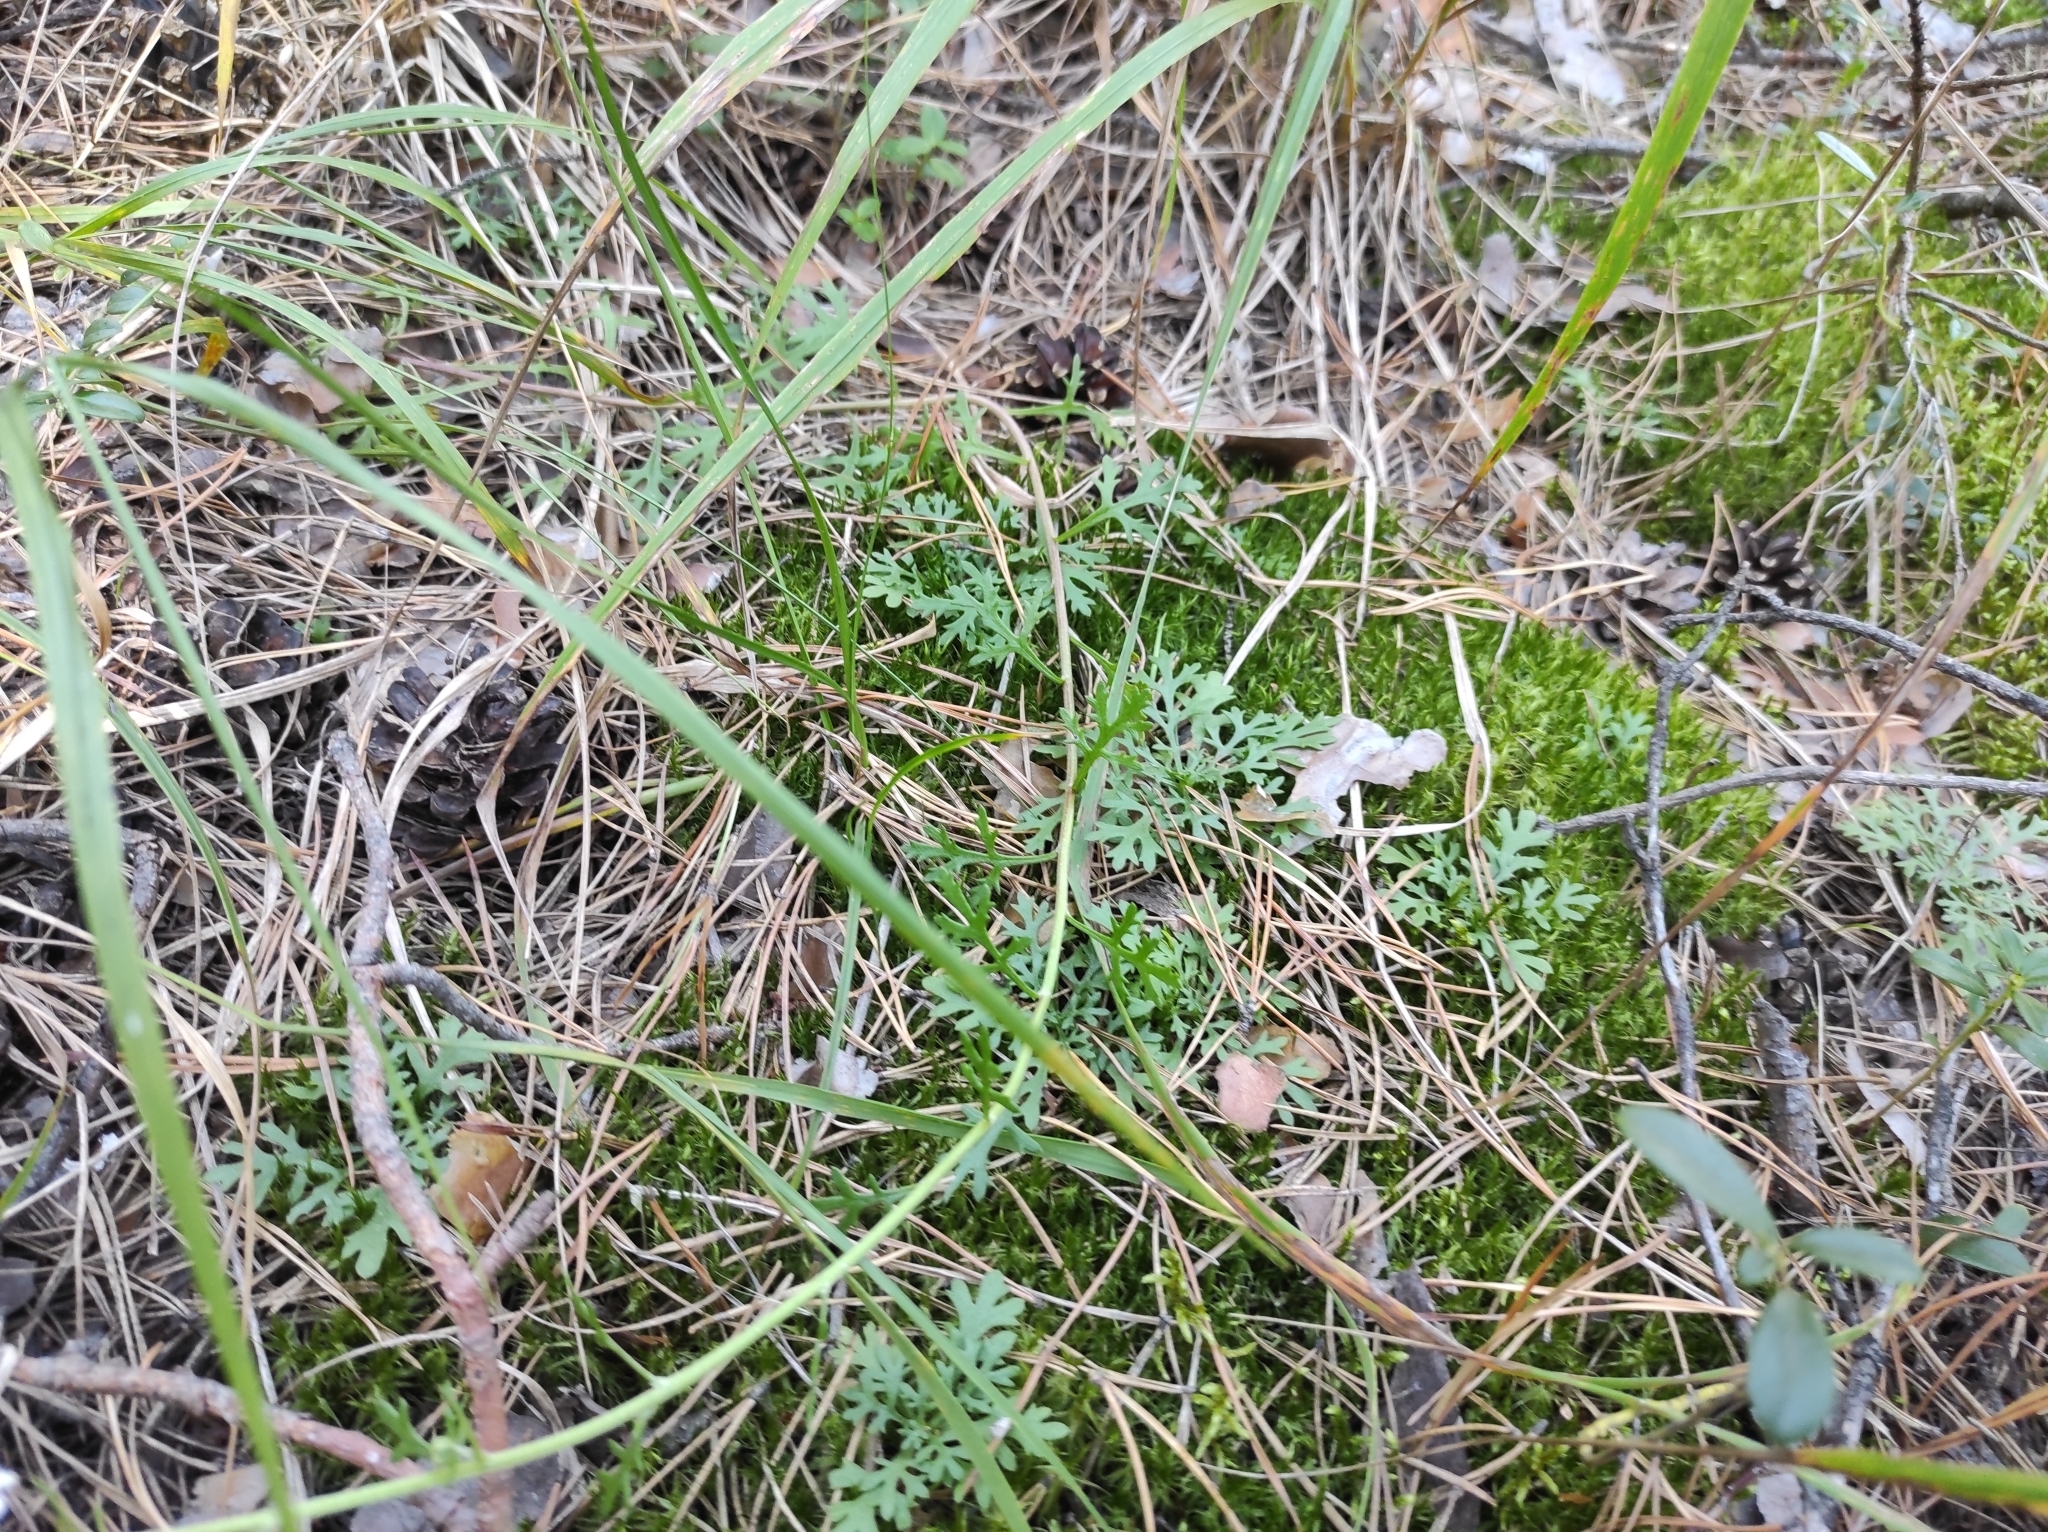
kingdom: Plantae
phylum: Tracheophyta
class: Magnoliopsida
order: Asterales
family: Asteraceae
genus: Chrysanthemum
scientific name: Chrysanthemum zawadzkii
